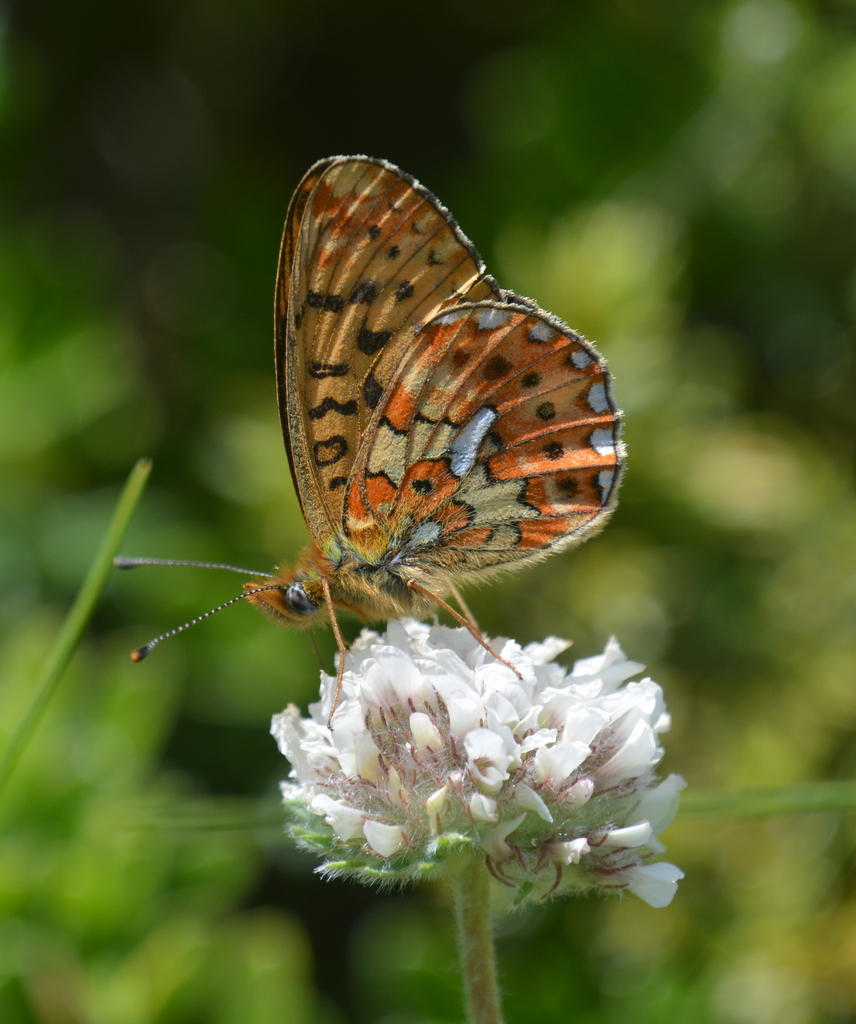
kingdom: Animalia
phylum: Arthropoda
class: Insecta
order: Lepidoptera
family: Nymphalidae
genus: Clossiana
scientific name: Clossiana euphrosyne
